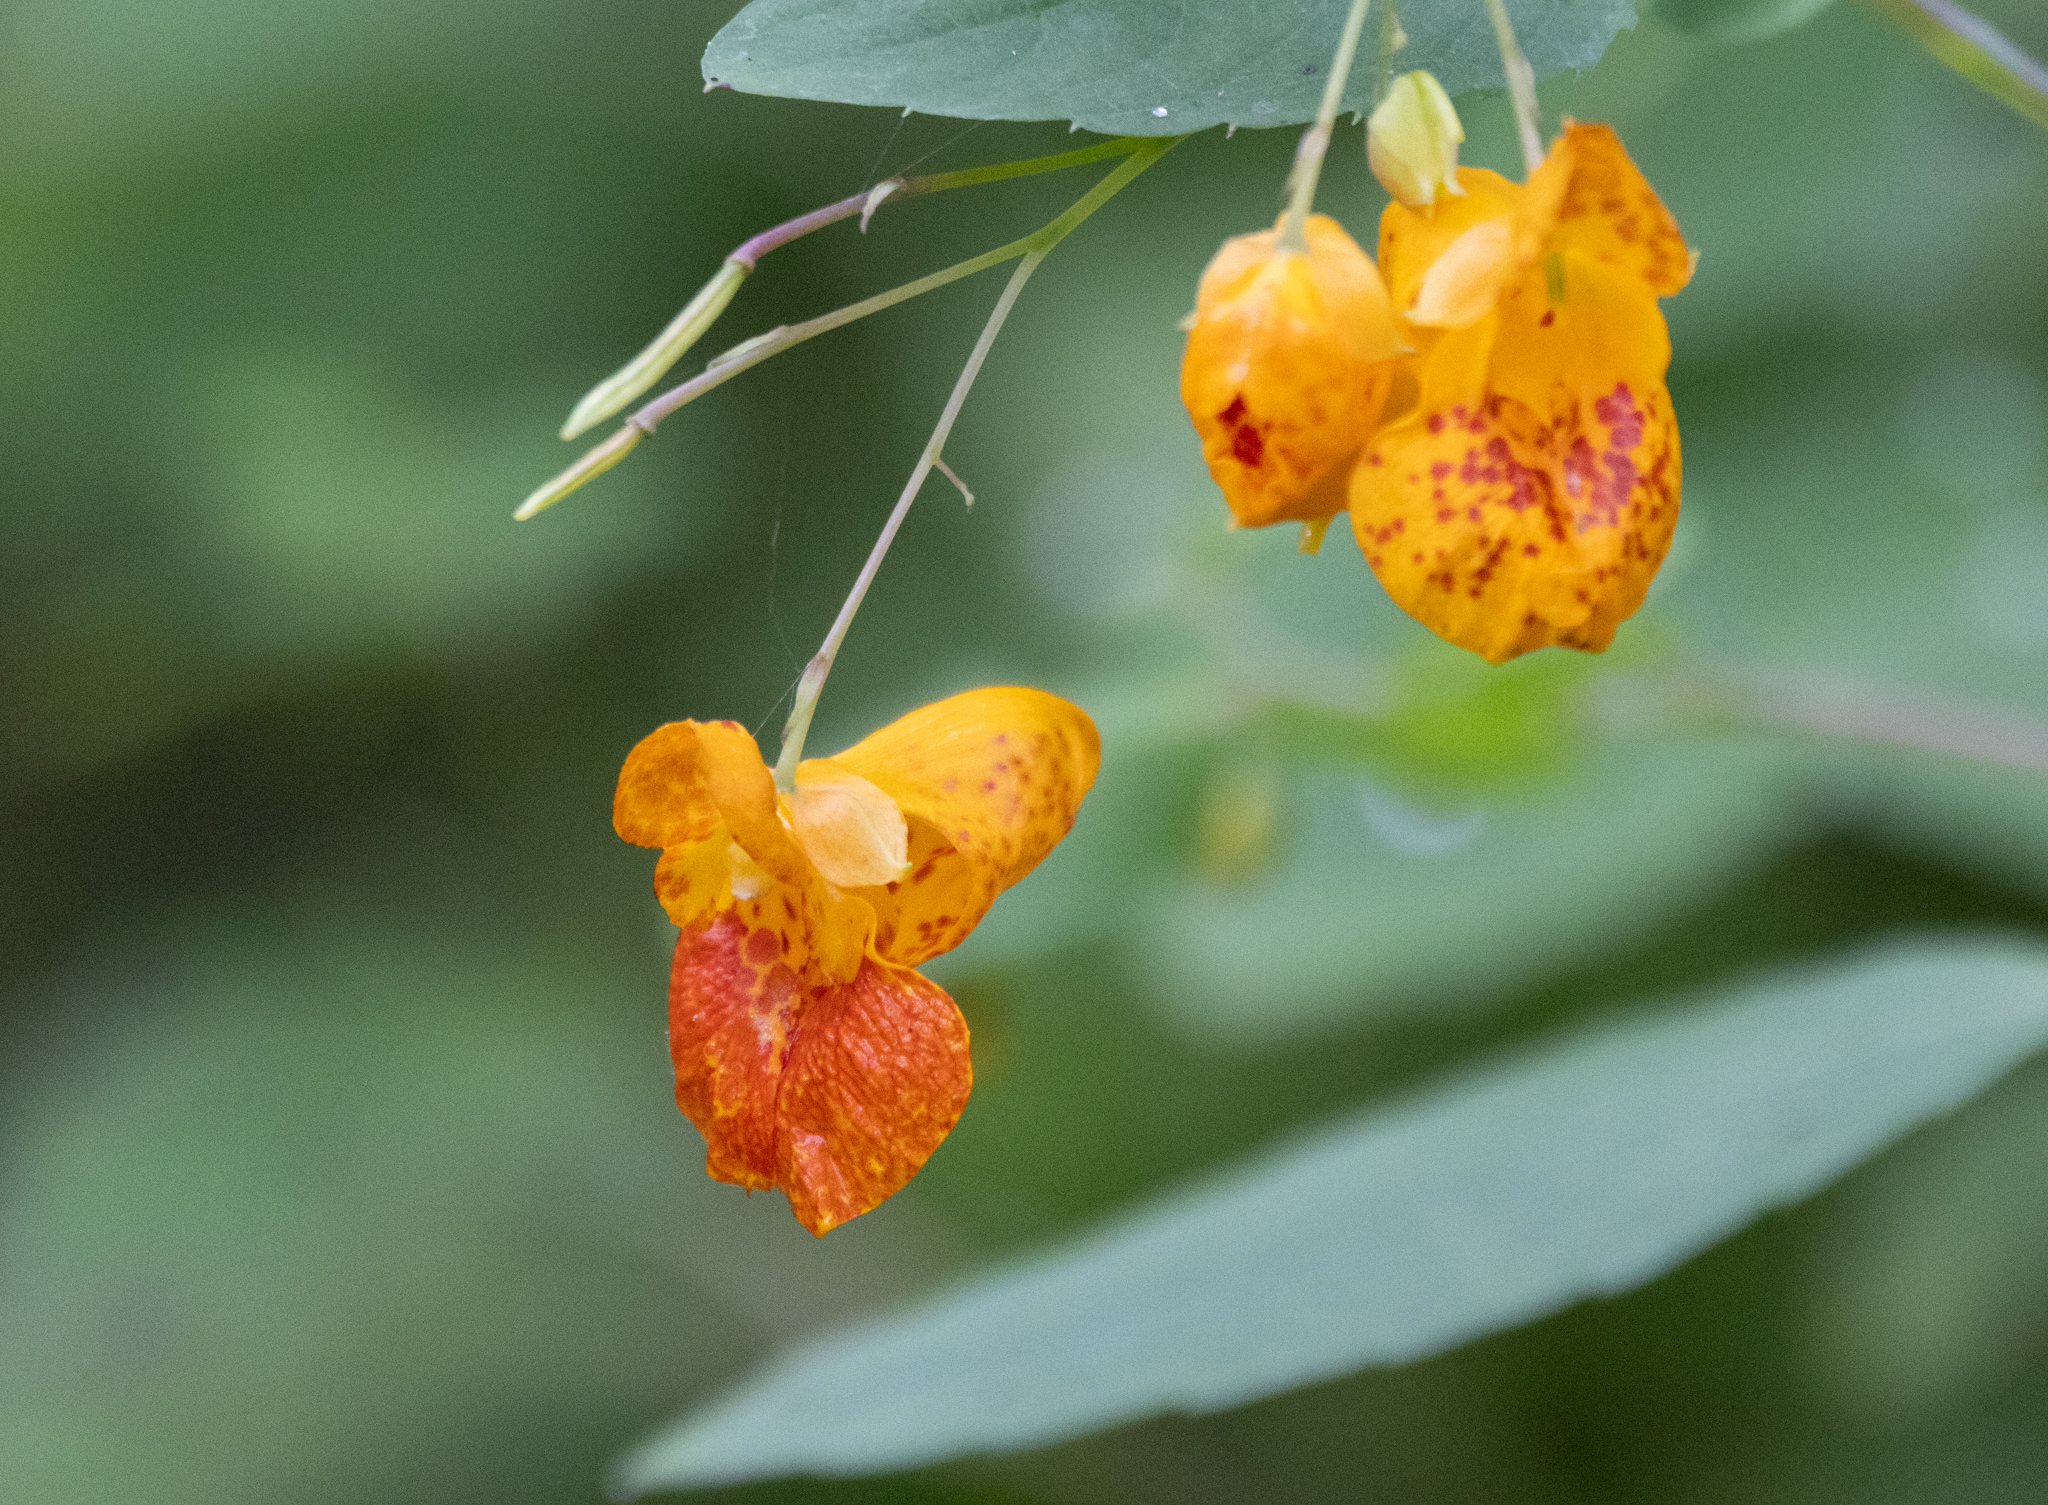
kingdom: Plantae
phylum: Tracheophyta
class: Magnoliopsida
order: Ericales
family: Balsaminaceae
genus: Impatiens
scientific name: Impatiens capensis
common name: Orange balsam
